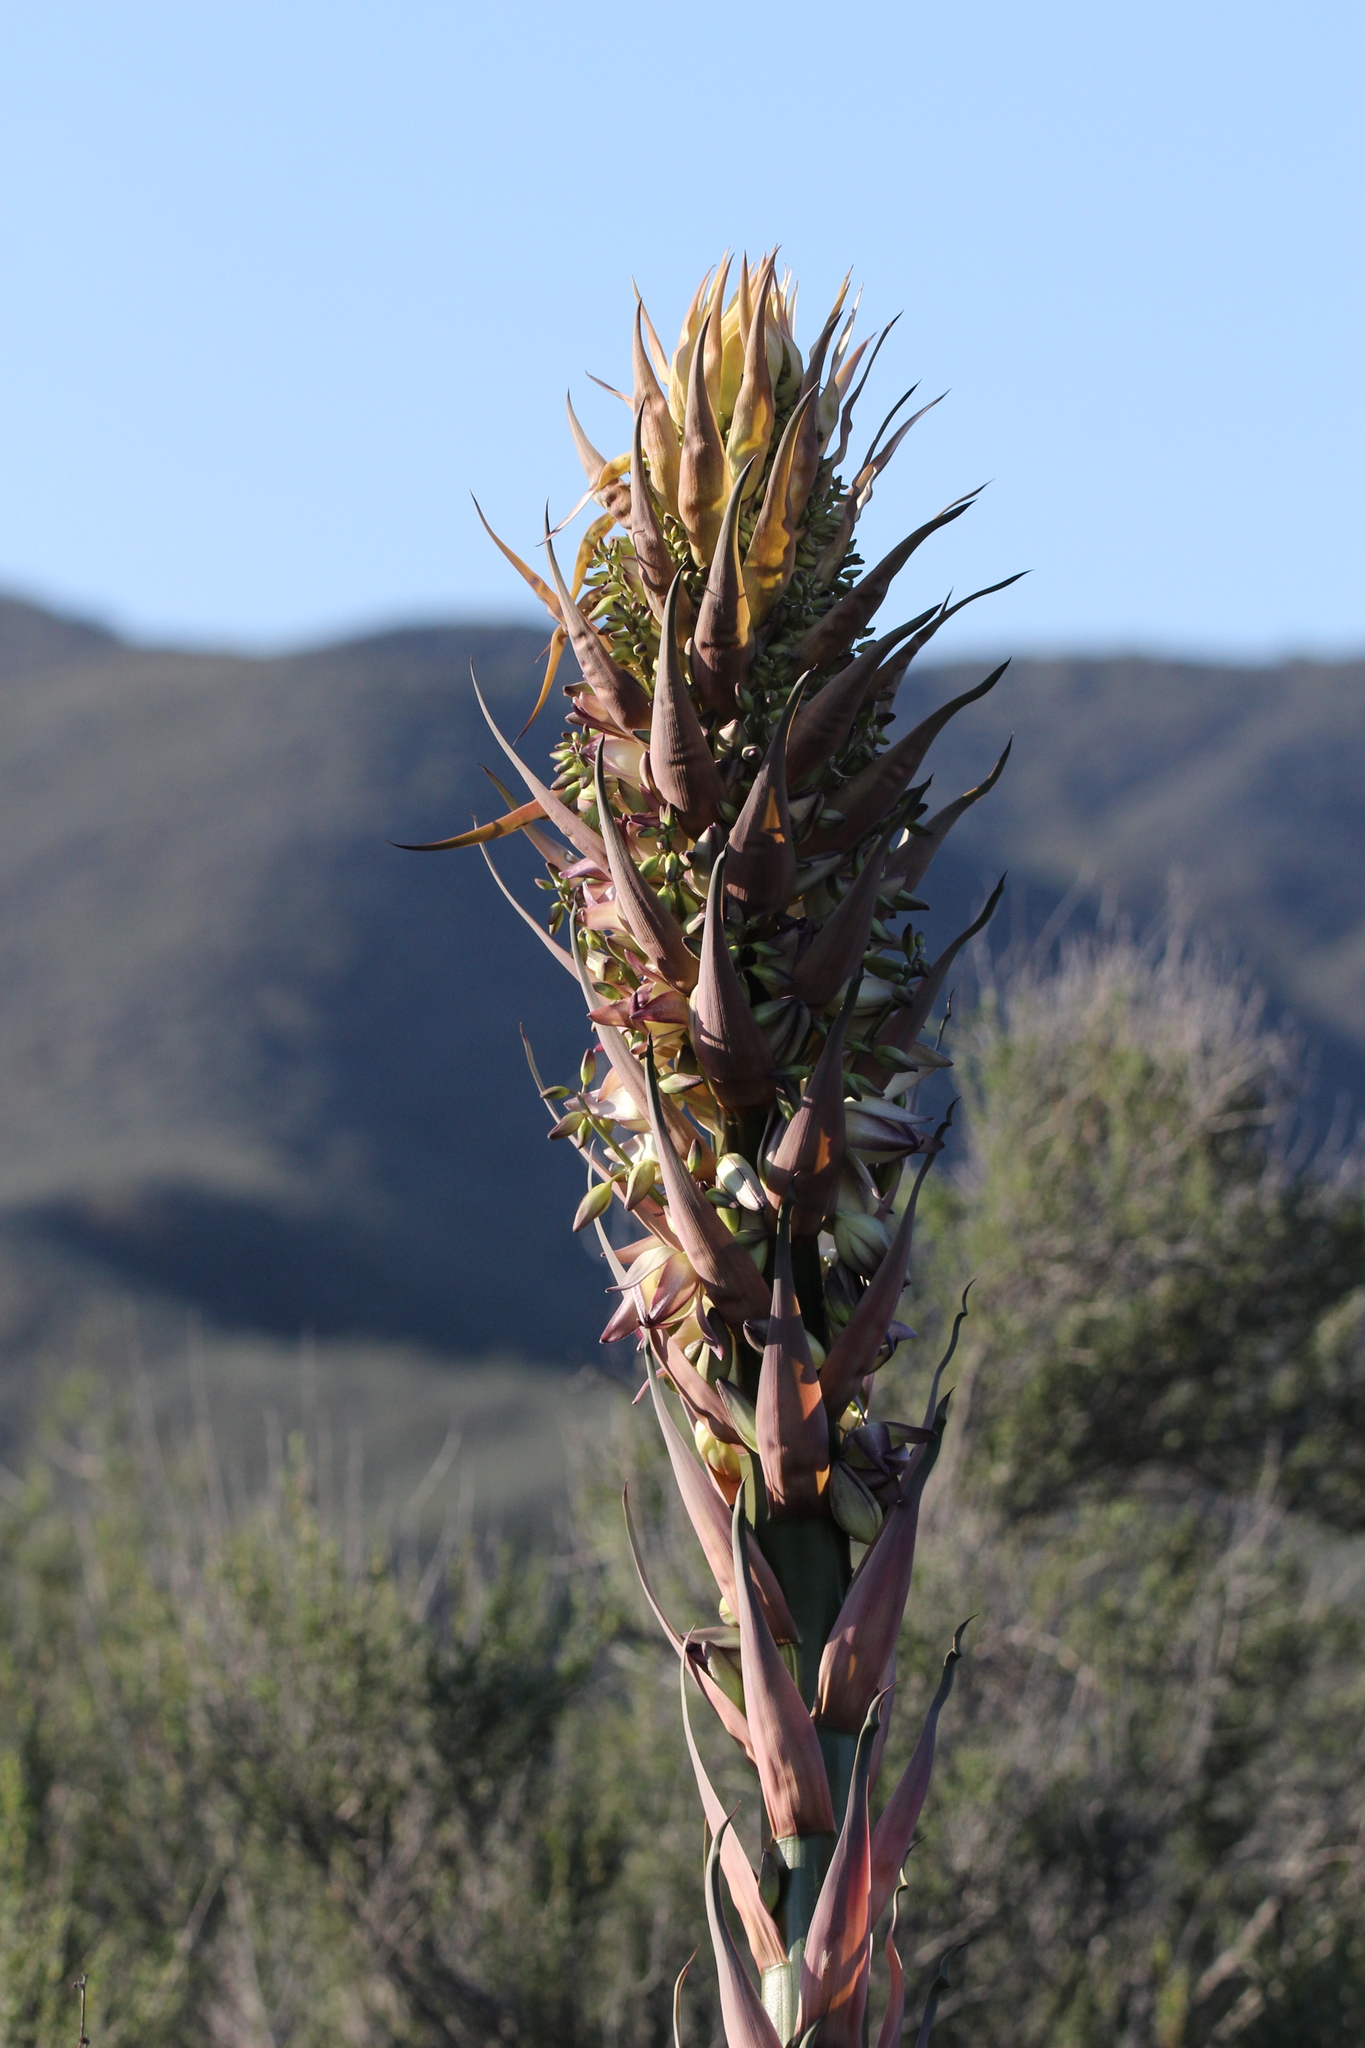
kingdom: Plantae
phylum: Tracheophyta
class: Liliopsida
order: Asparagales
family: Asparagaceae
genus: Hesperoyucca
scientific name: Hesperoyucca whipplei
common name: Our lord's-candle
